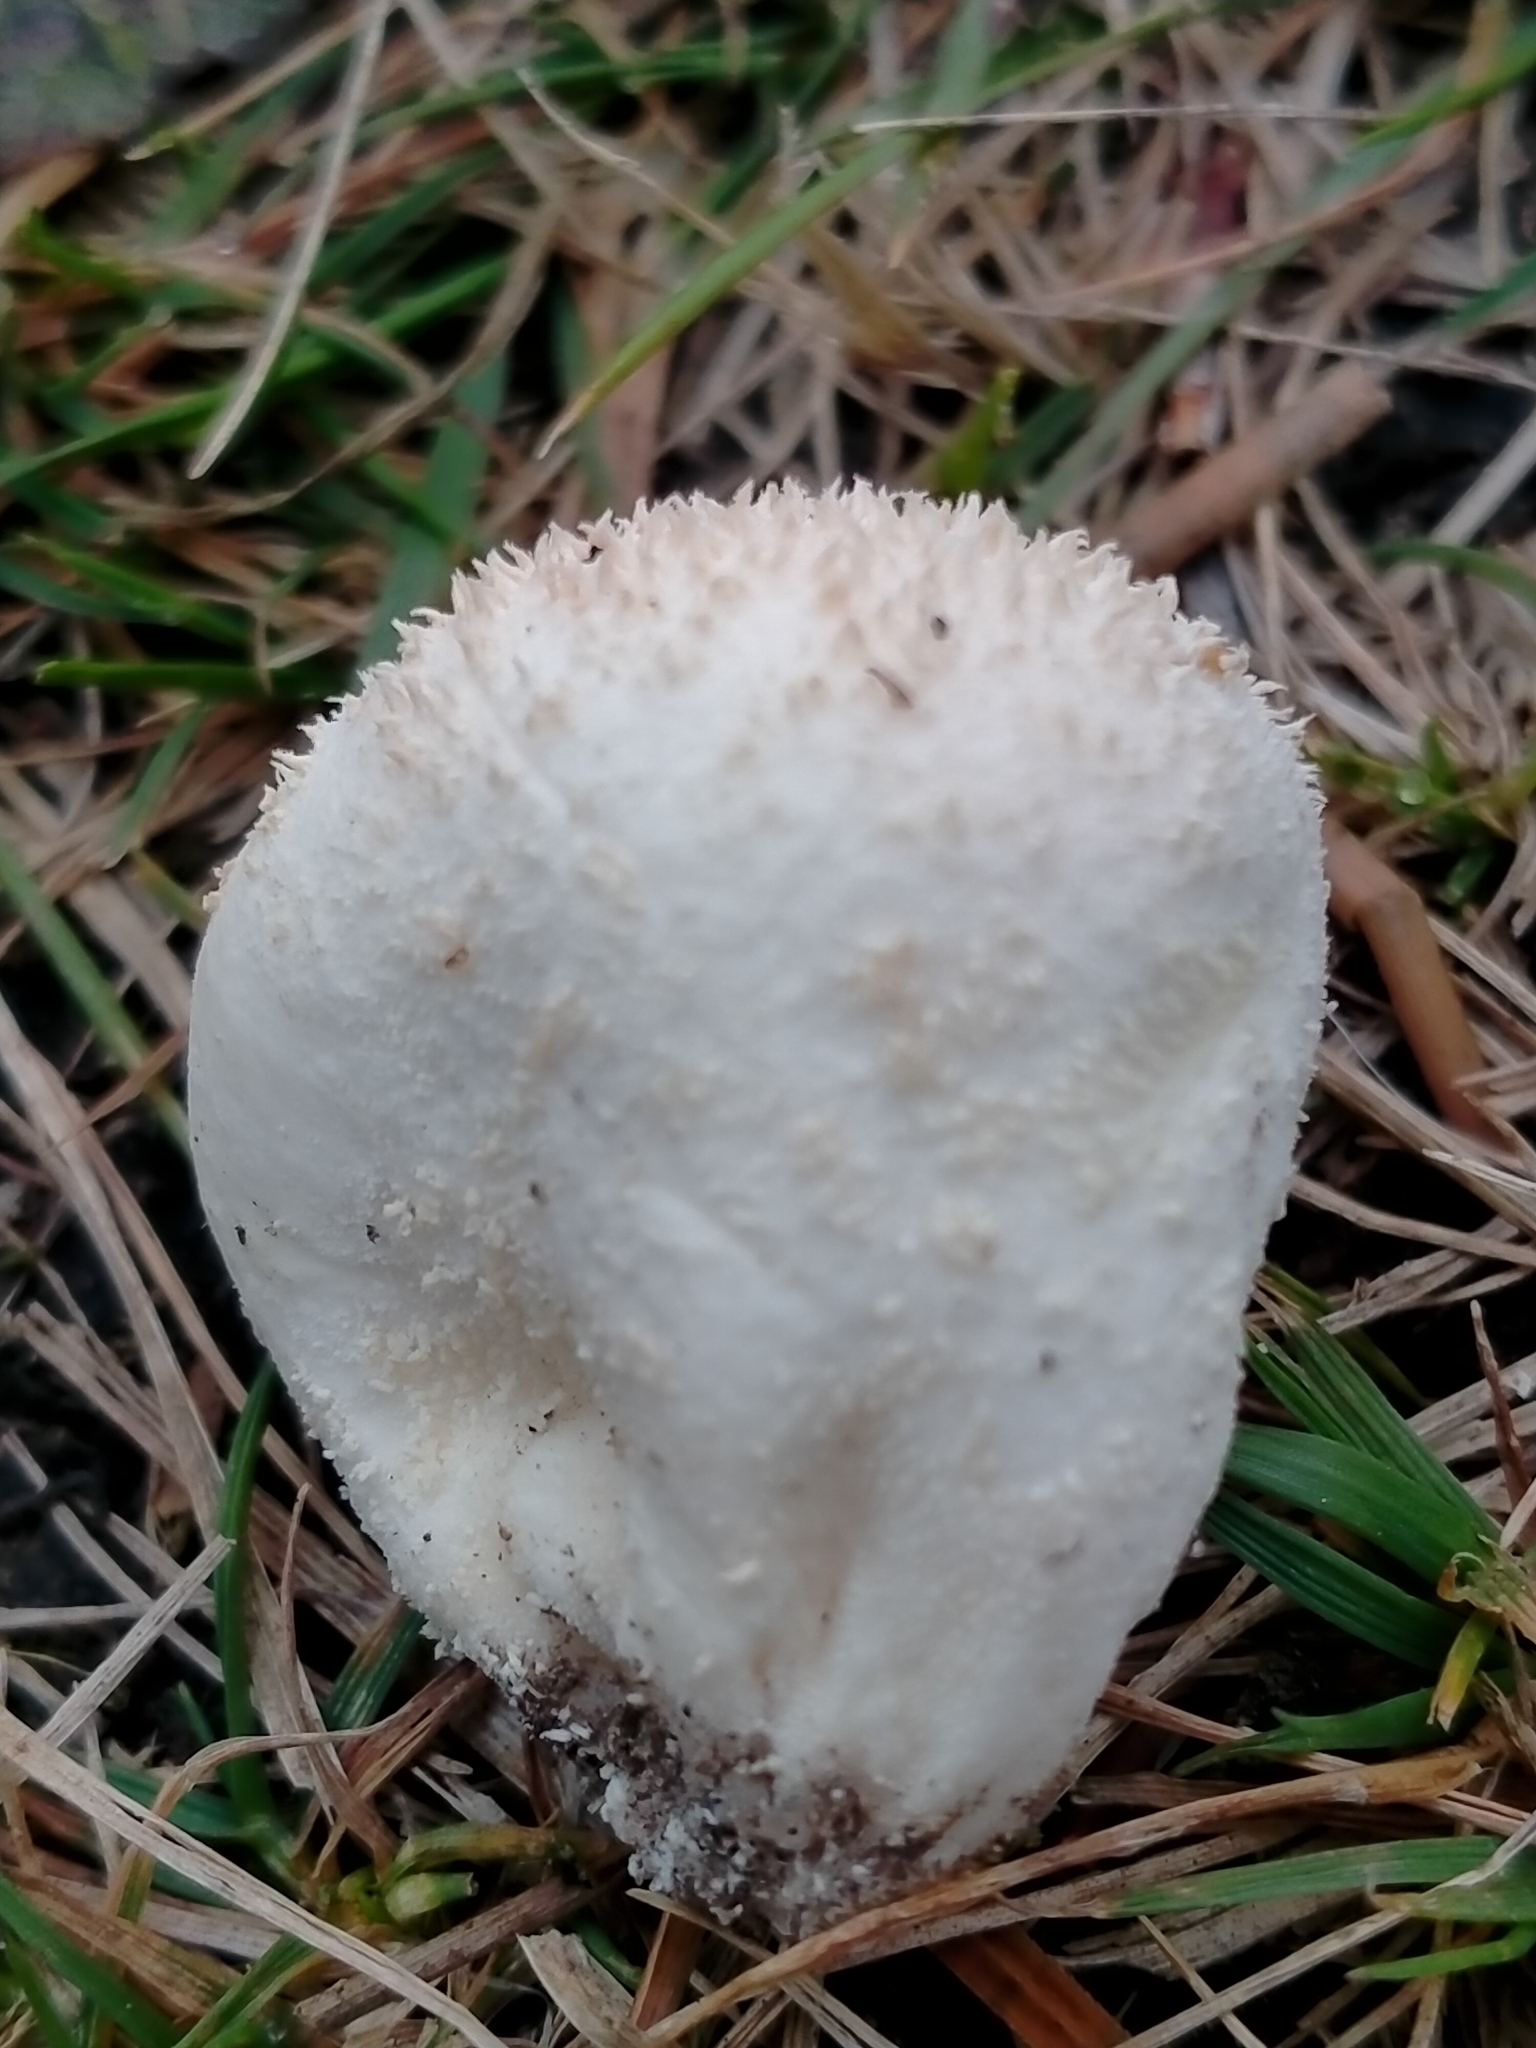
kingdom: Fungi
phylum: Basidiomycota
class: Agaricomycetes
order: Agaricales
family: Lycoperdaceae
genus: Lycoperdon
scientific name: Lycoperdon pratense
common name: Meadow puffball
